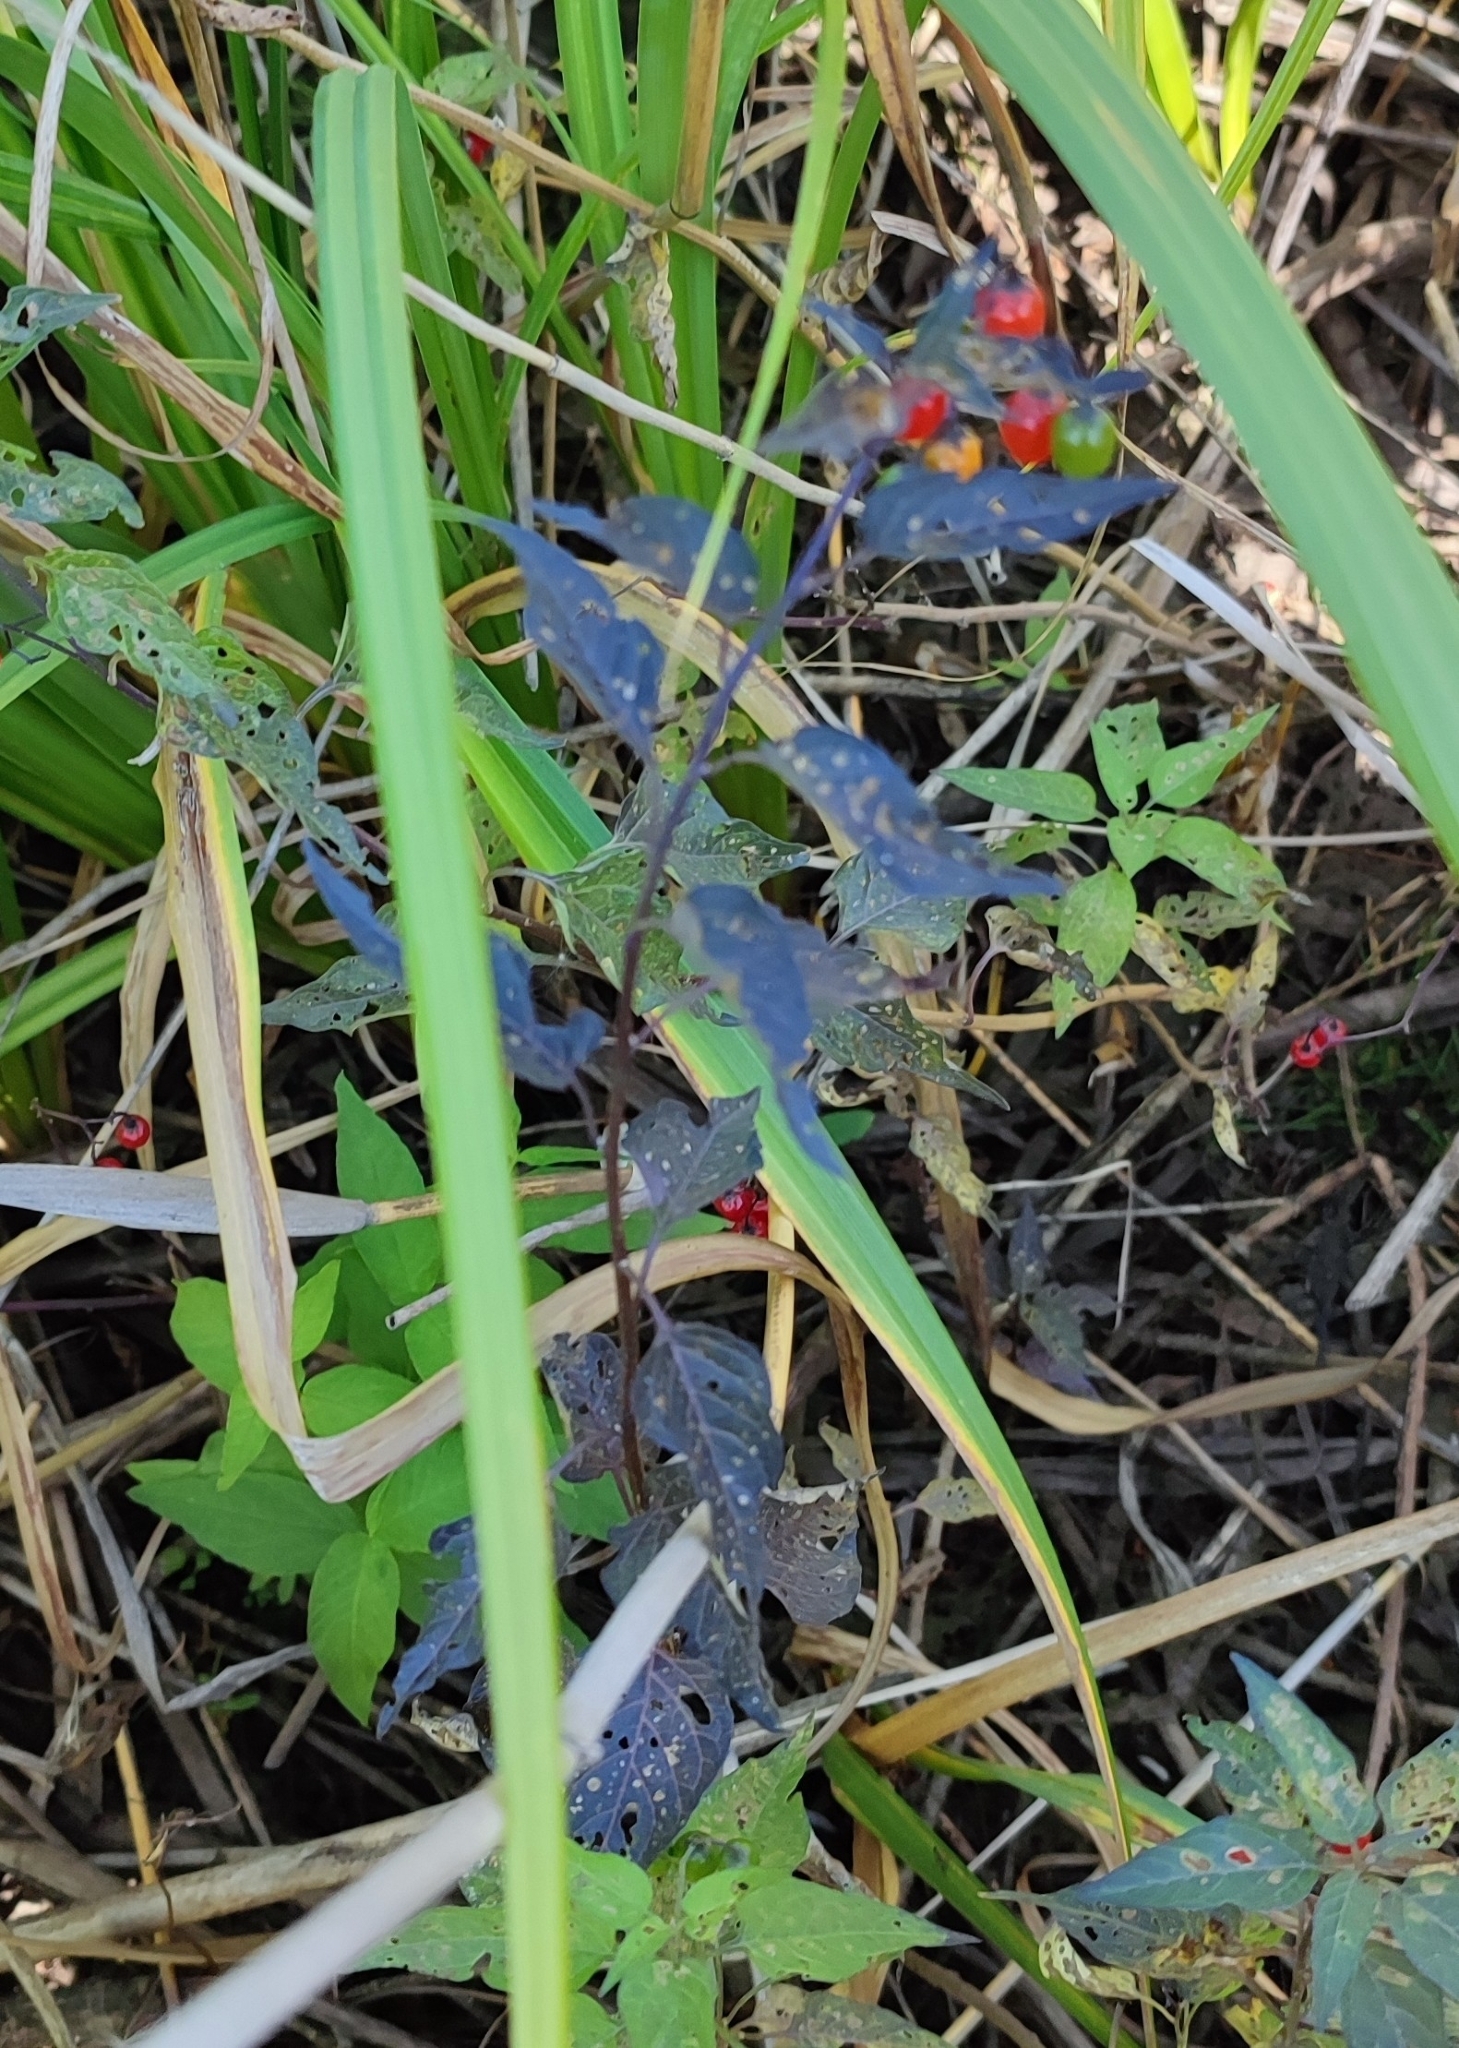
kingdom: Plantae
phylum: Tracheophyta
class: Magnoliopsida
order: Solanales
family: Solanaceae
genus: Solanum
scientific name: Solanum dulcamara
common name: Climbing nightshade
